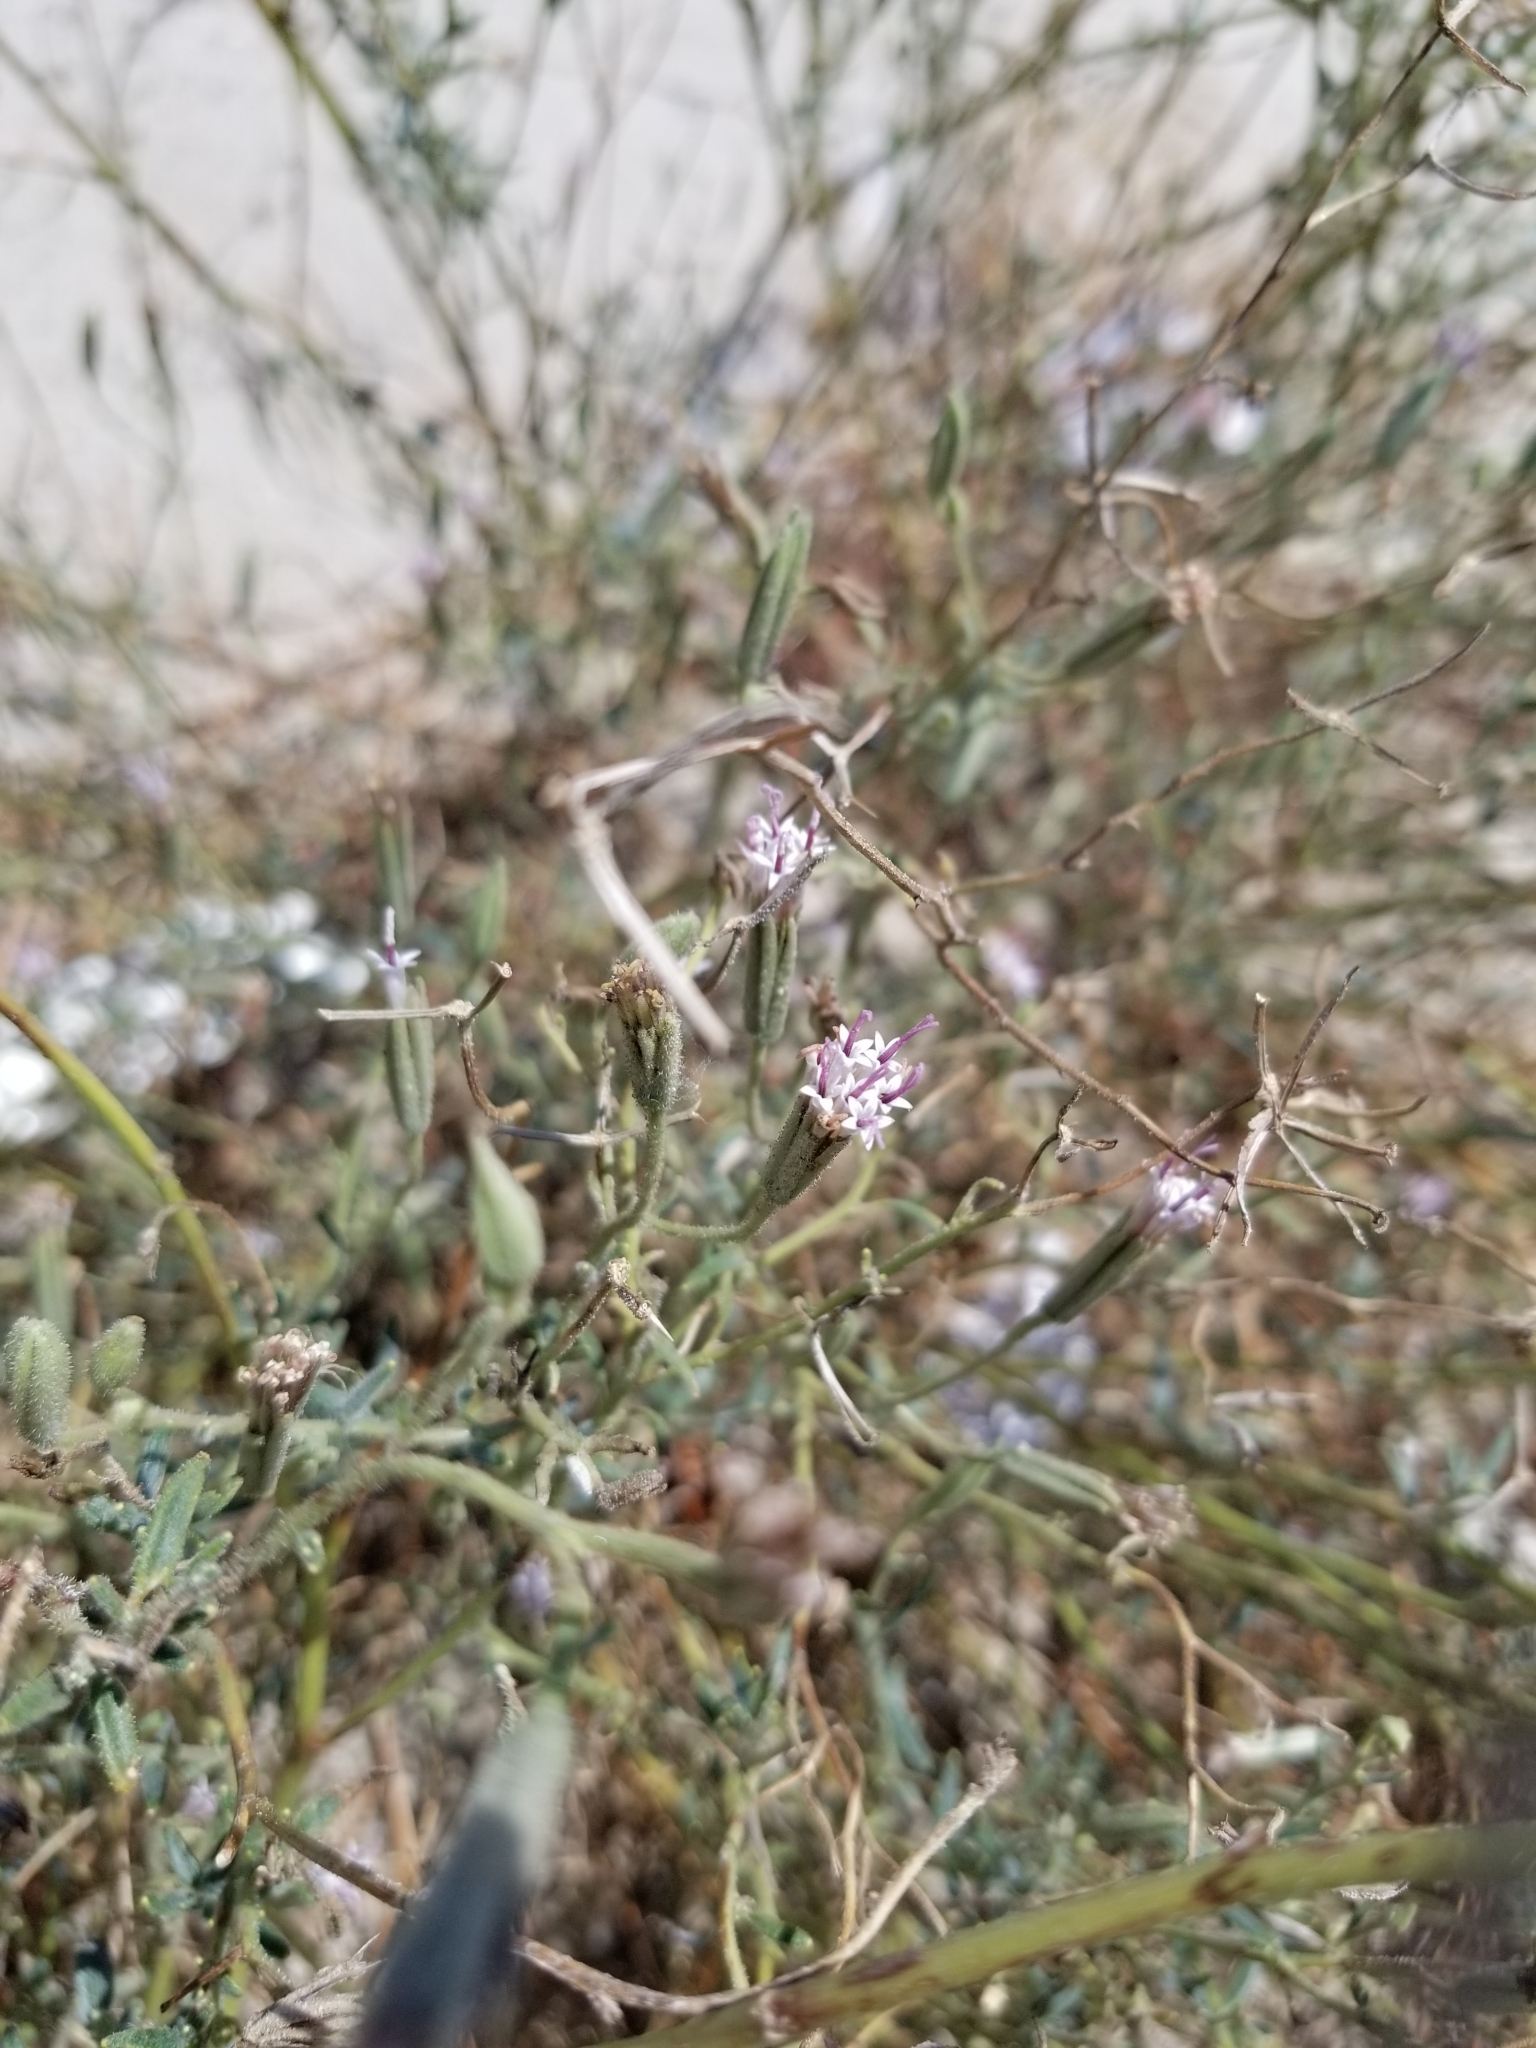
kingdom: Plantae
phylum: Tracheophyta
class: Magnoliopsida
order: Asterales
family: Asteraceae
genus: Palafoxia
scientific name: Palafoxia arida
